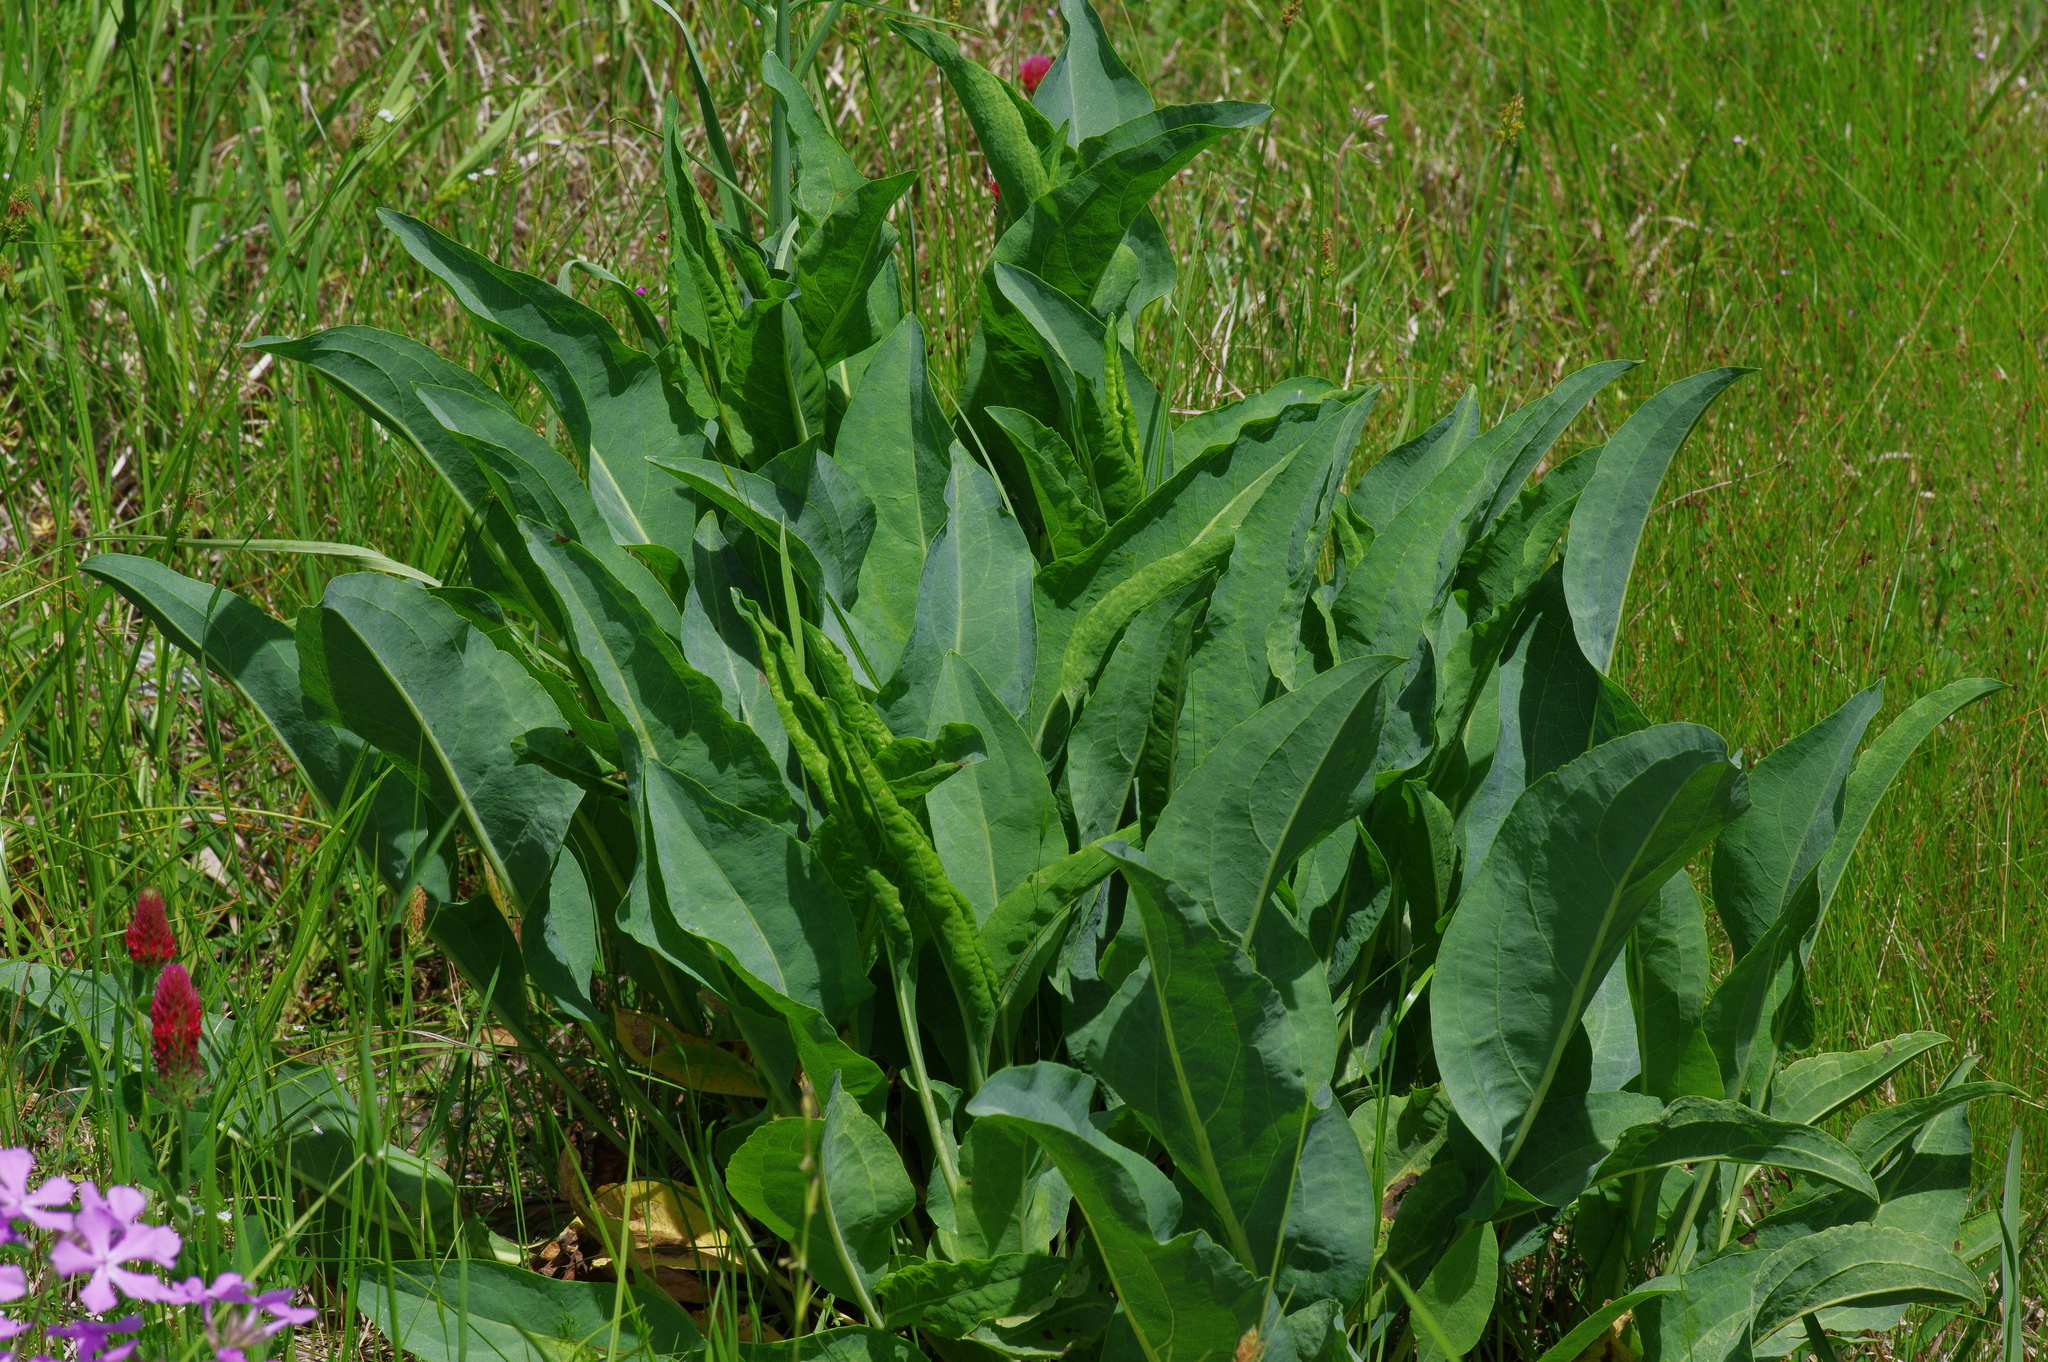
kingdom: Plantae
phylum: Tracheophyta
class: Magnoliopsida
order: Asterales
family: Asteraceae
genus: Rudbeckia
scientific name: Rudbeckia maxima
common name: Cabbage coneflower
